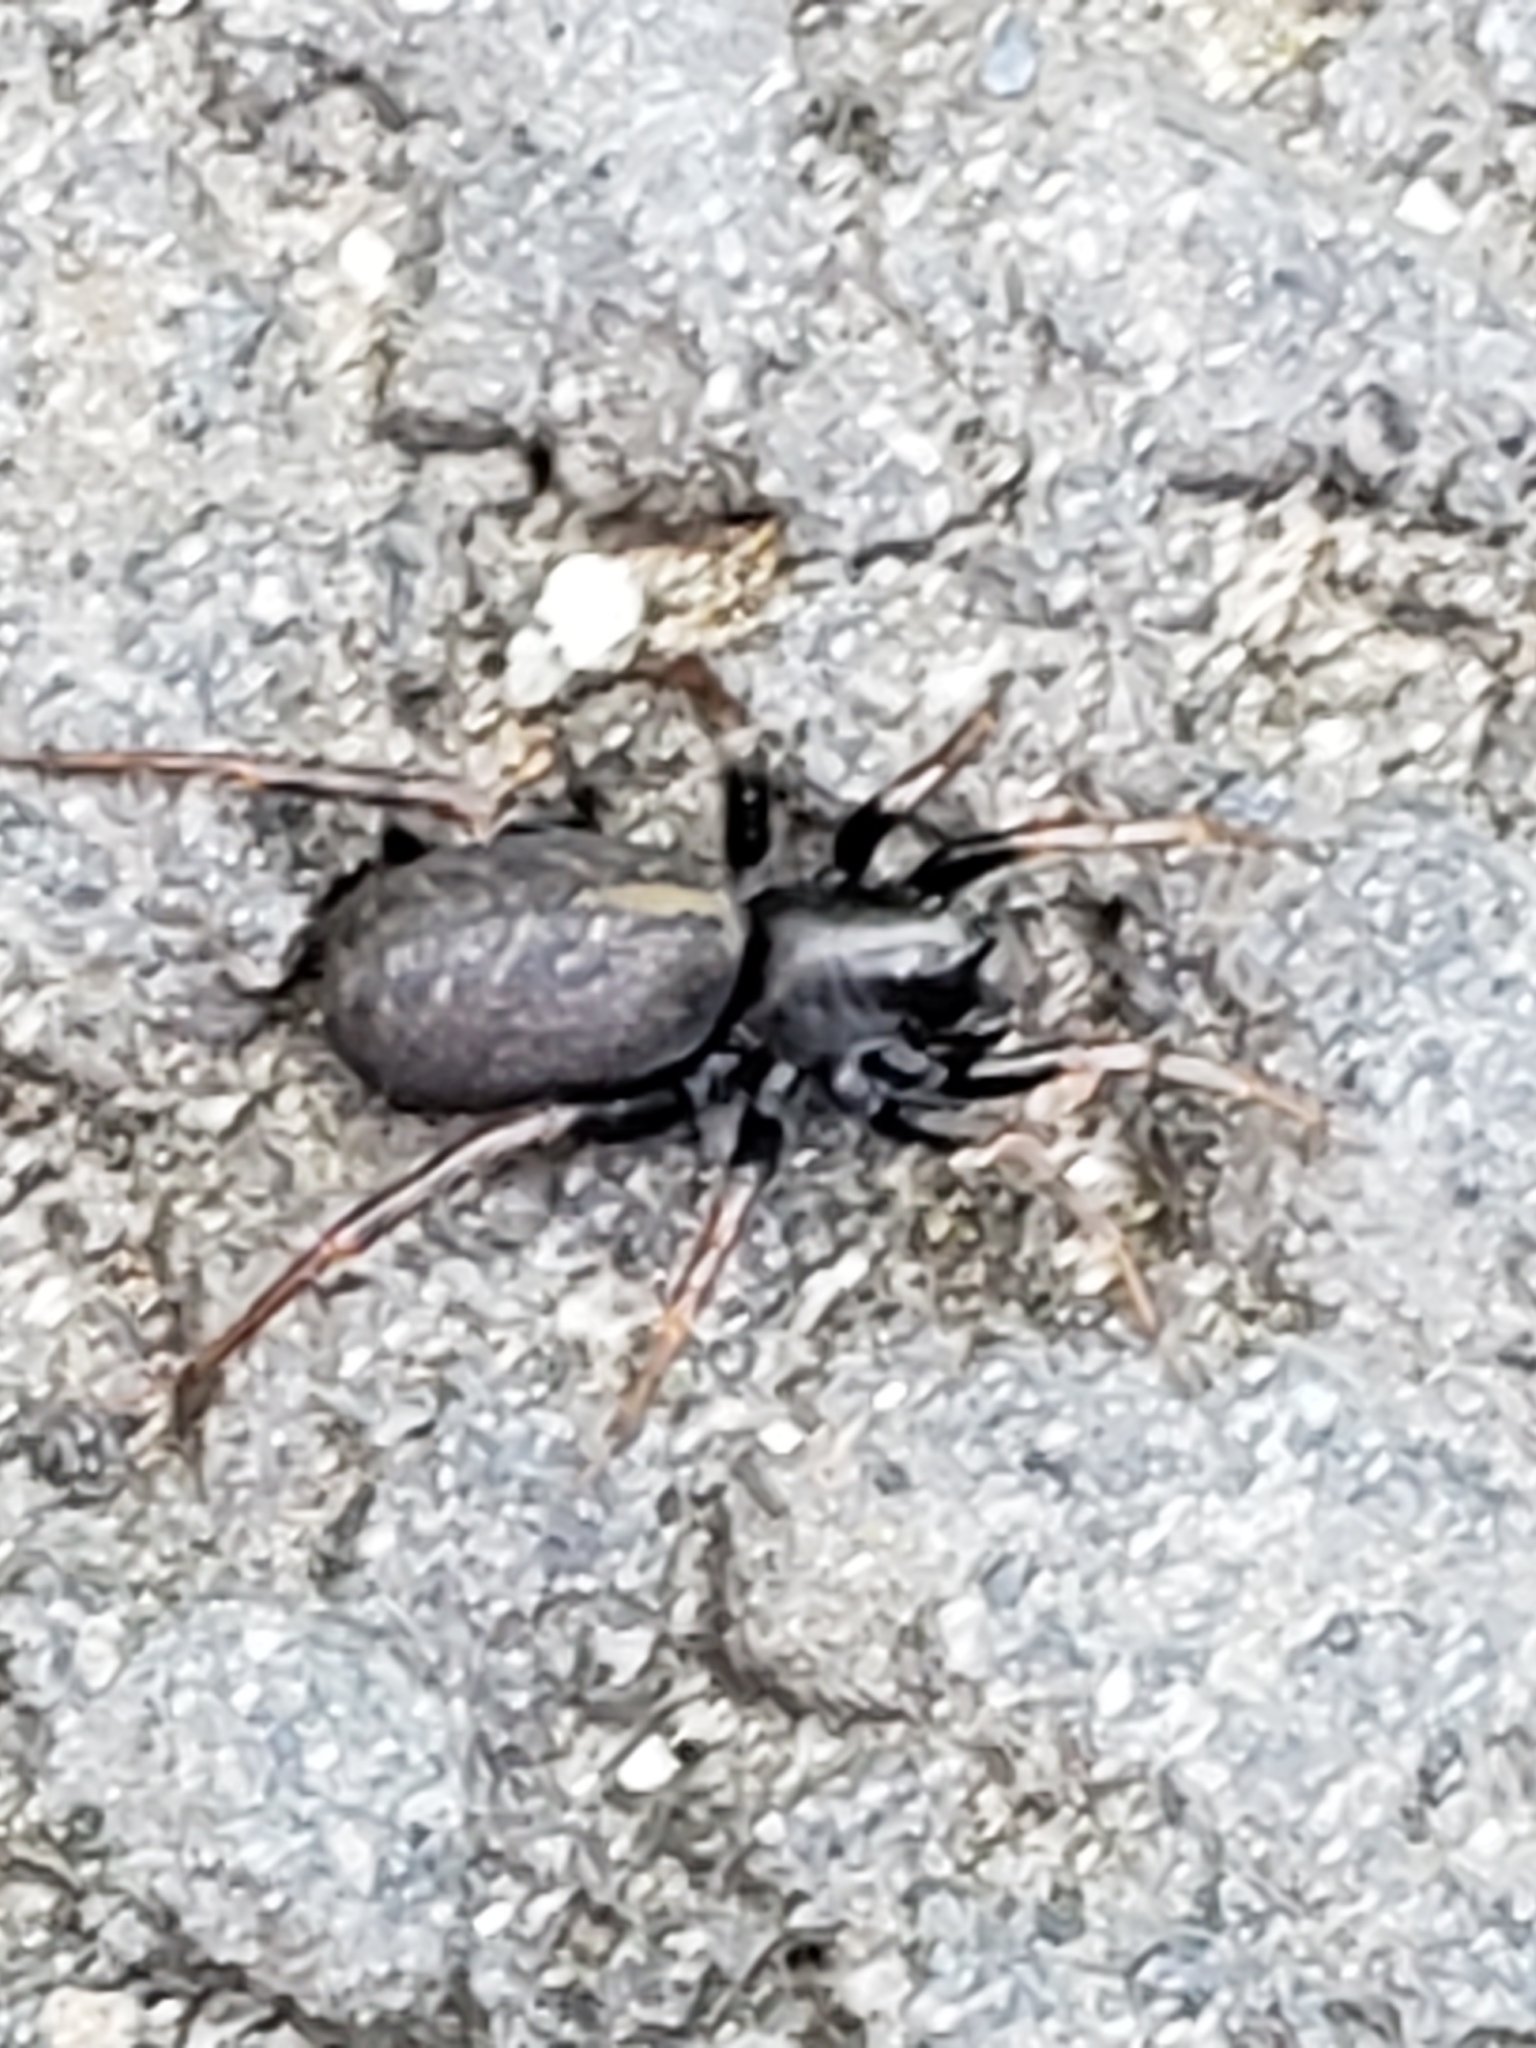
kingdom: Animalia
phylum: Arthropoda
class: Arachnida
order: Araneae
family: Lycosidae
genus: Allocosa
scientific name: Allocosa funerea
